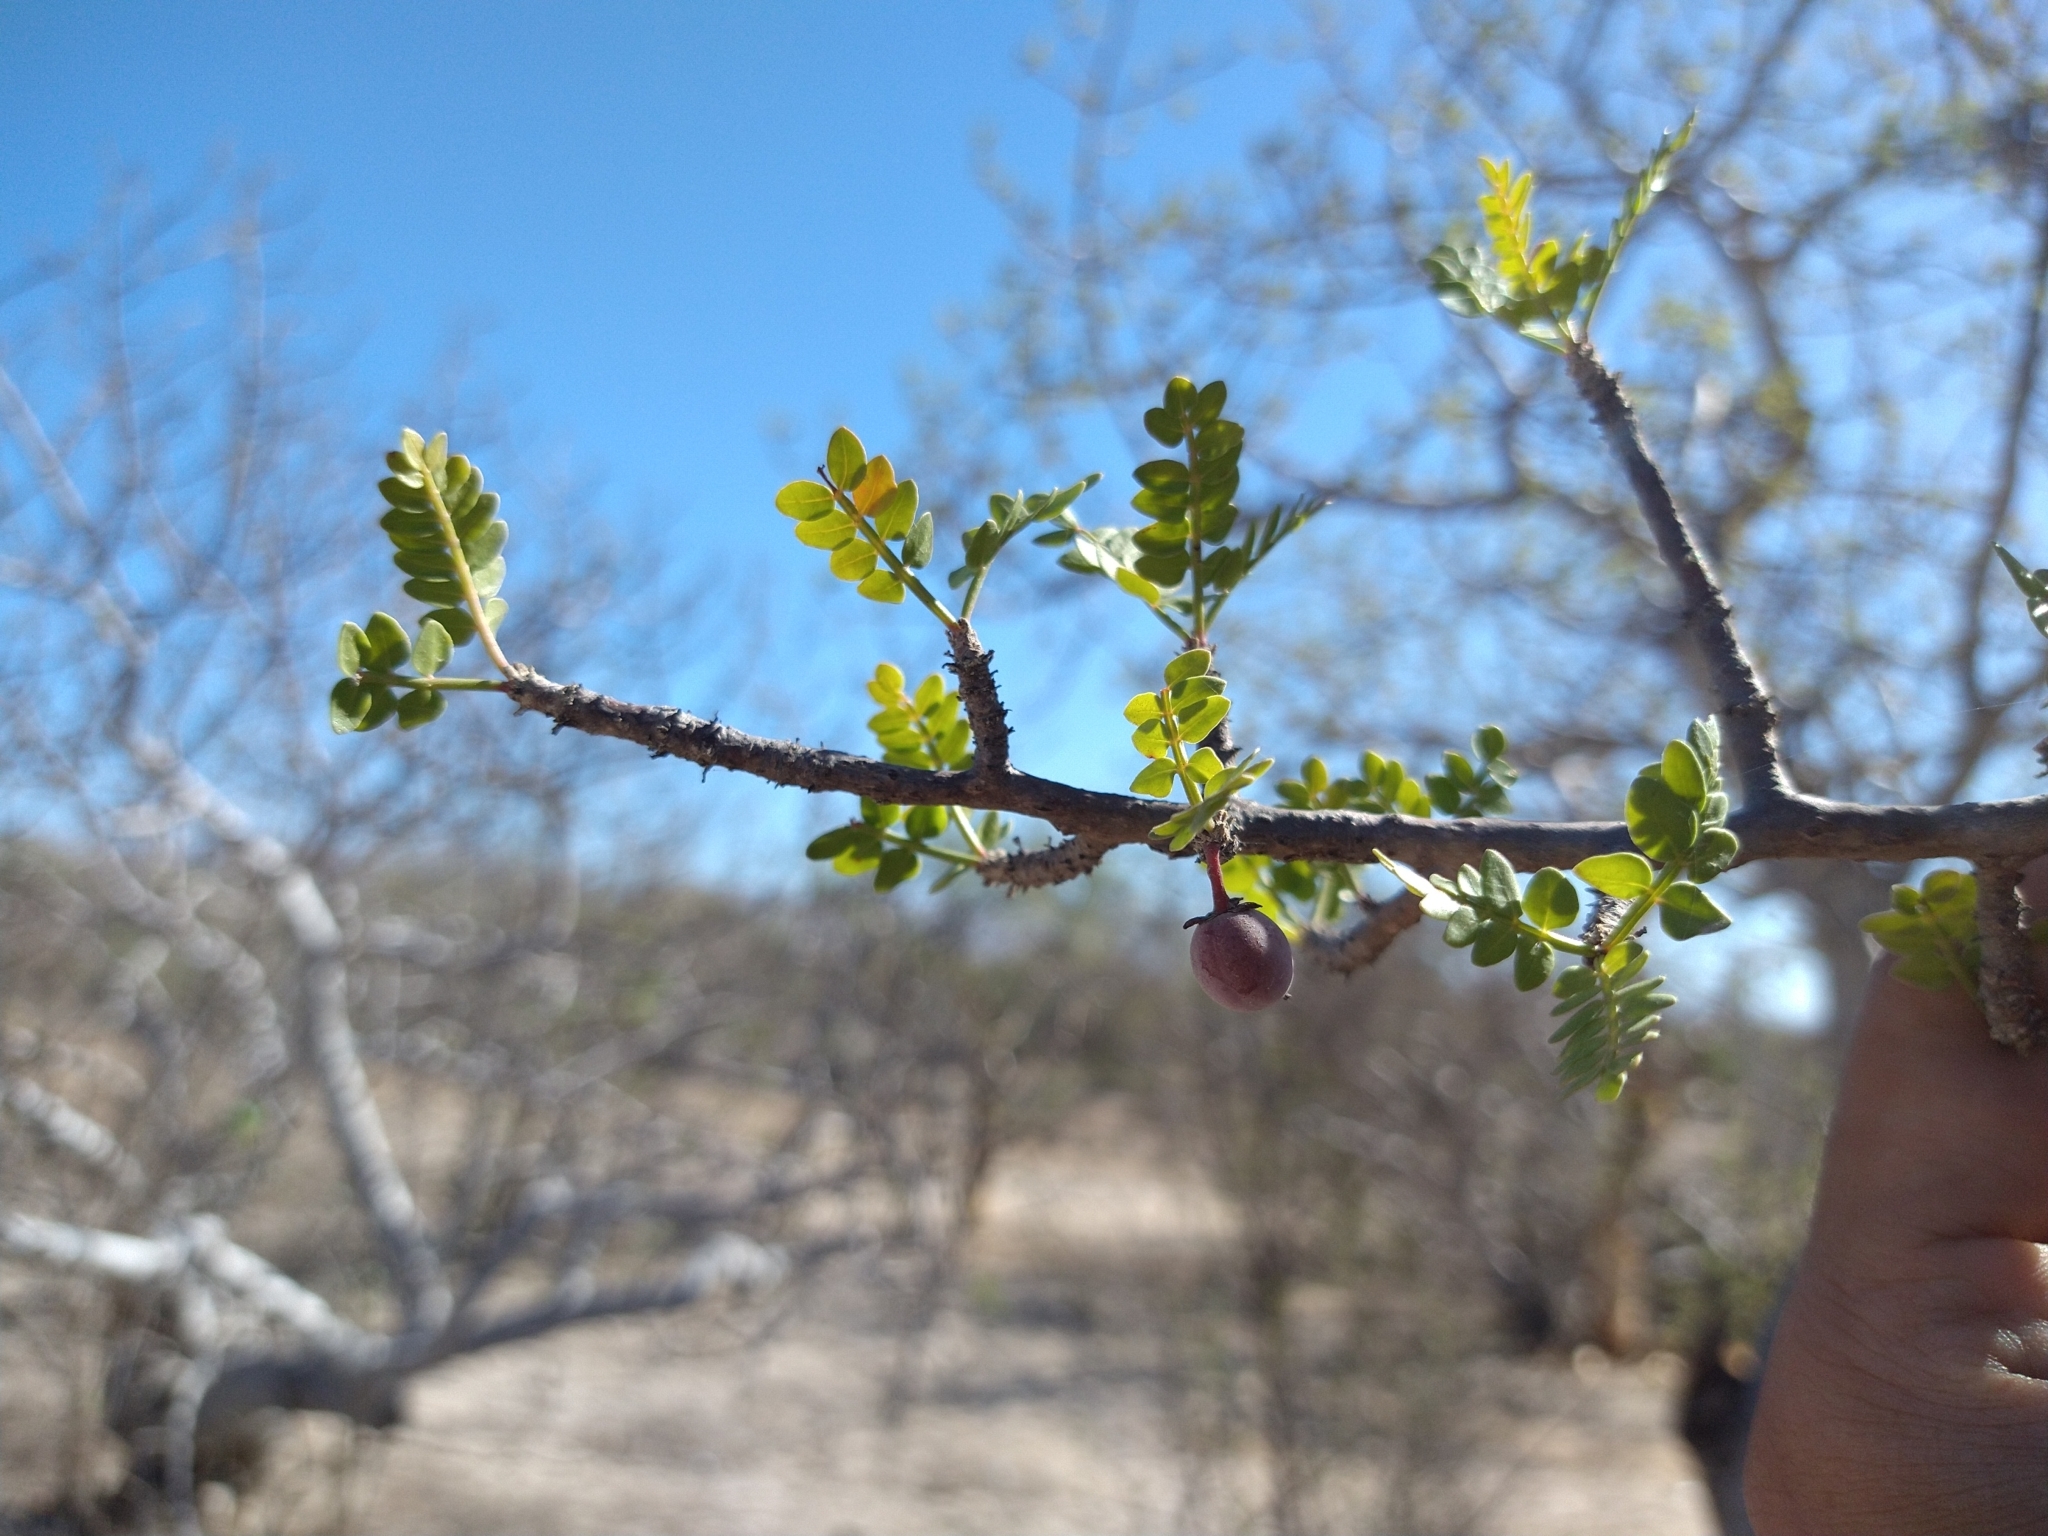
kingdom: Plantae
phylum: Tracheophyta
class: Magnoliopsida
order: Sapindales
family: Burseraceae
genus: Bursera
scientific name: Bursera microphylla
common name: Elephant tree
